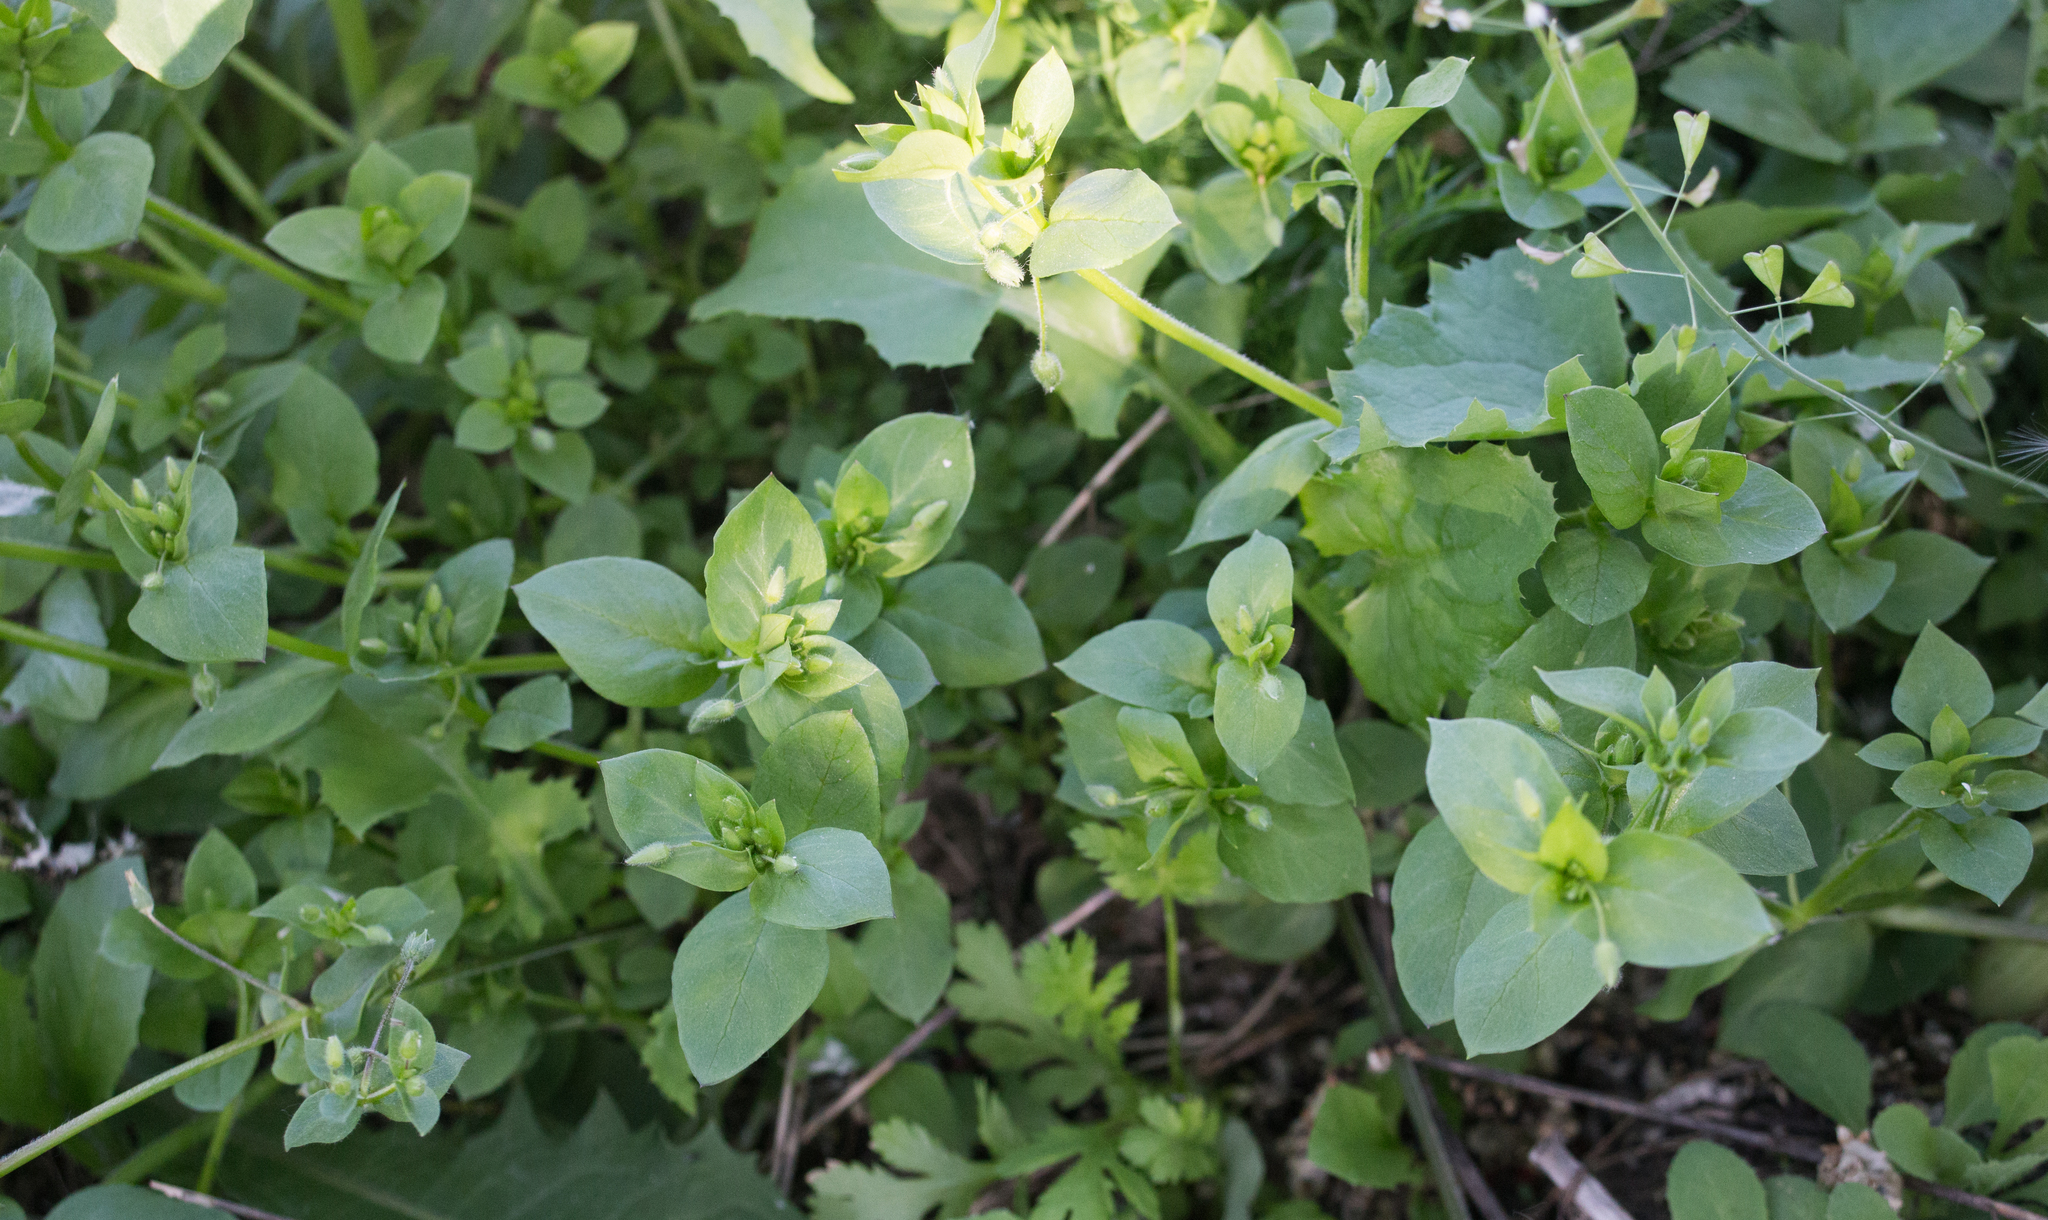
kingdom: Plantae
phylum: Tracheophyta
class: Magnoliopsida
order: Caryophyllales
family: Caryophyllaceae
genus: Stellaria
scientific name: Stellaria media
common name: Common chickweed
